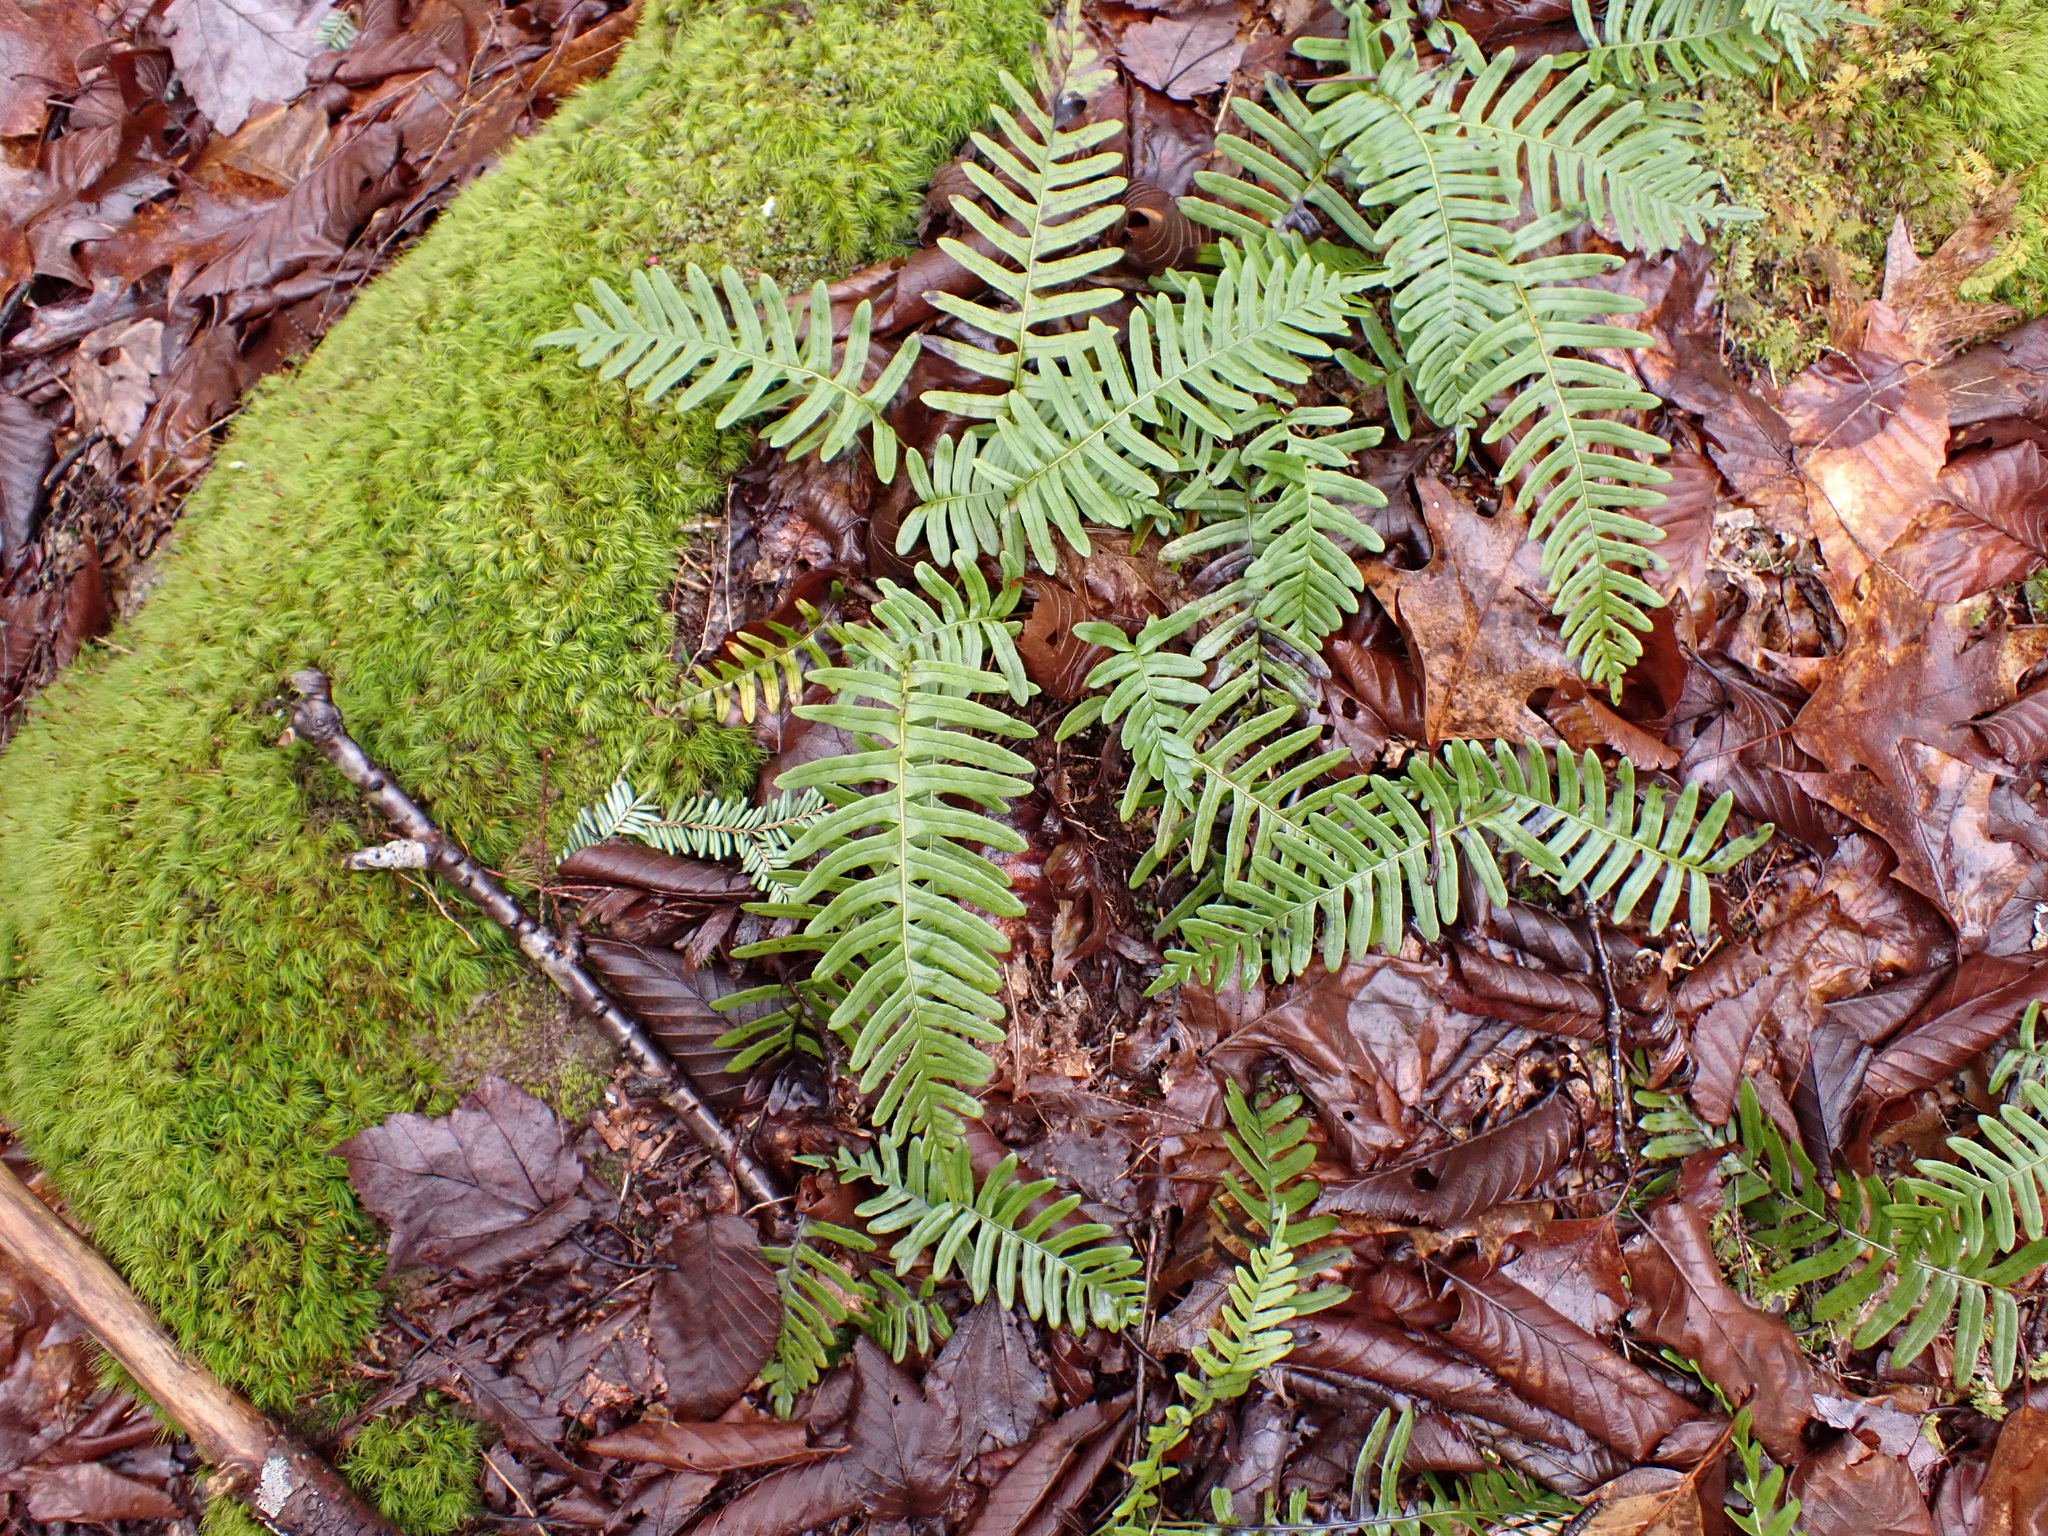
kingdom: Plantae
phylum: Tracheophyta
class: Polypodiopsida
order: Polypodiales
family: Polypodiaceae
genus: Polypodium
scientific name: Polypodium virginianum
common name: American wall fern
